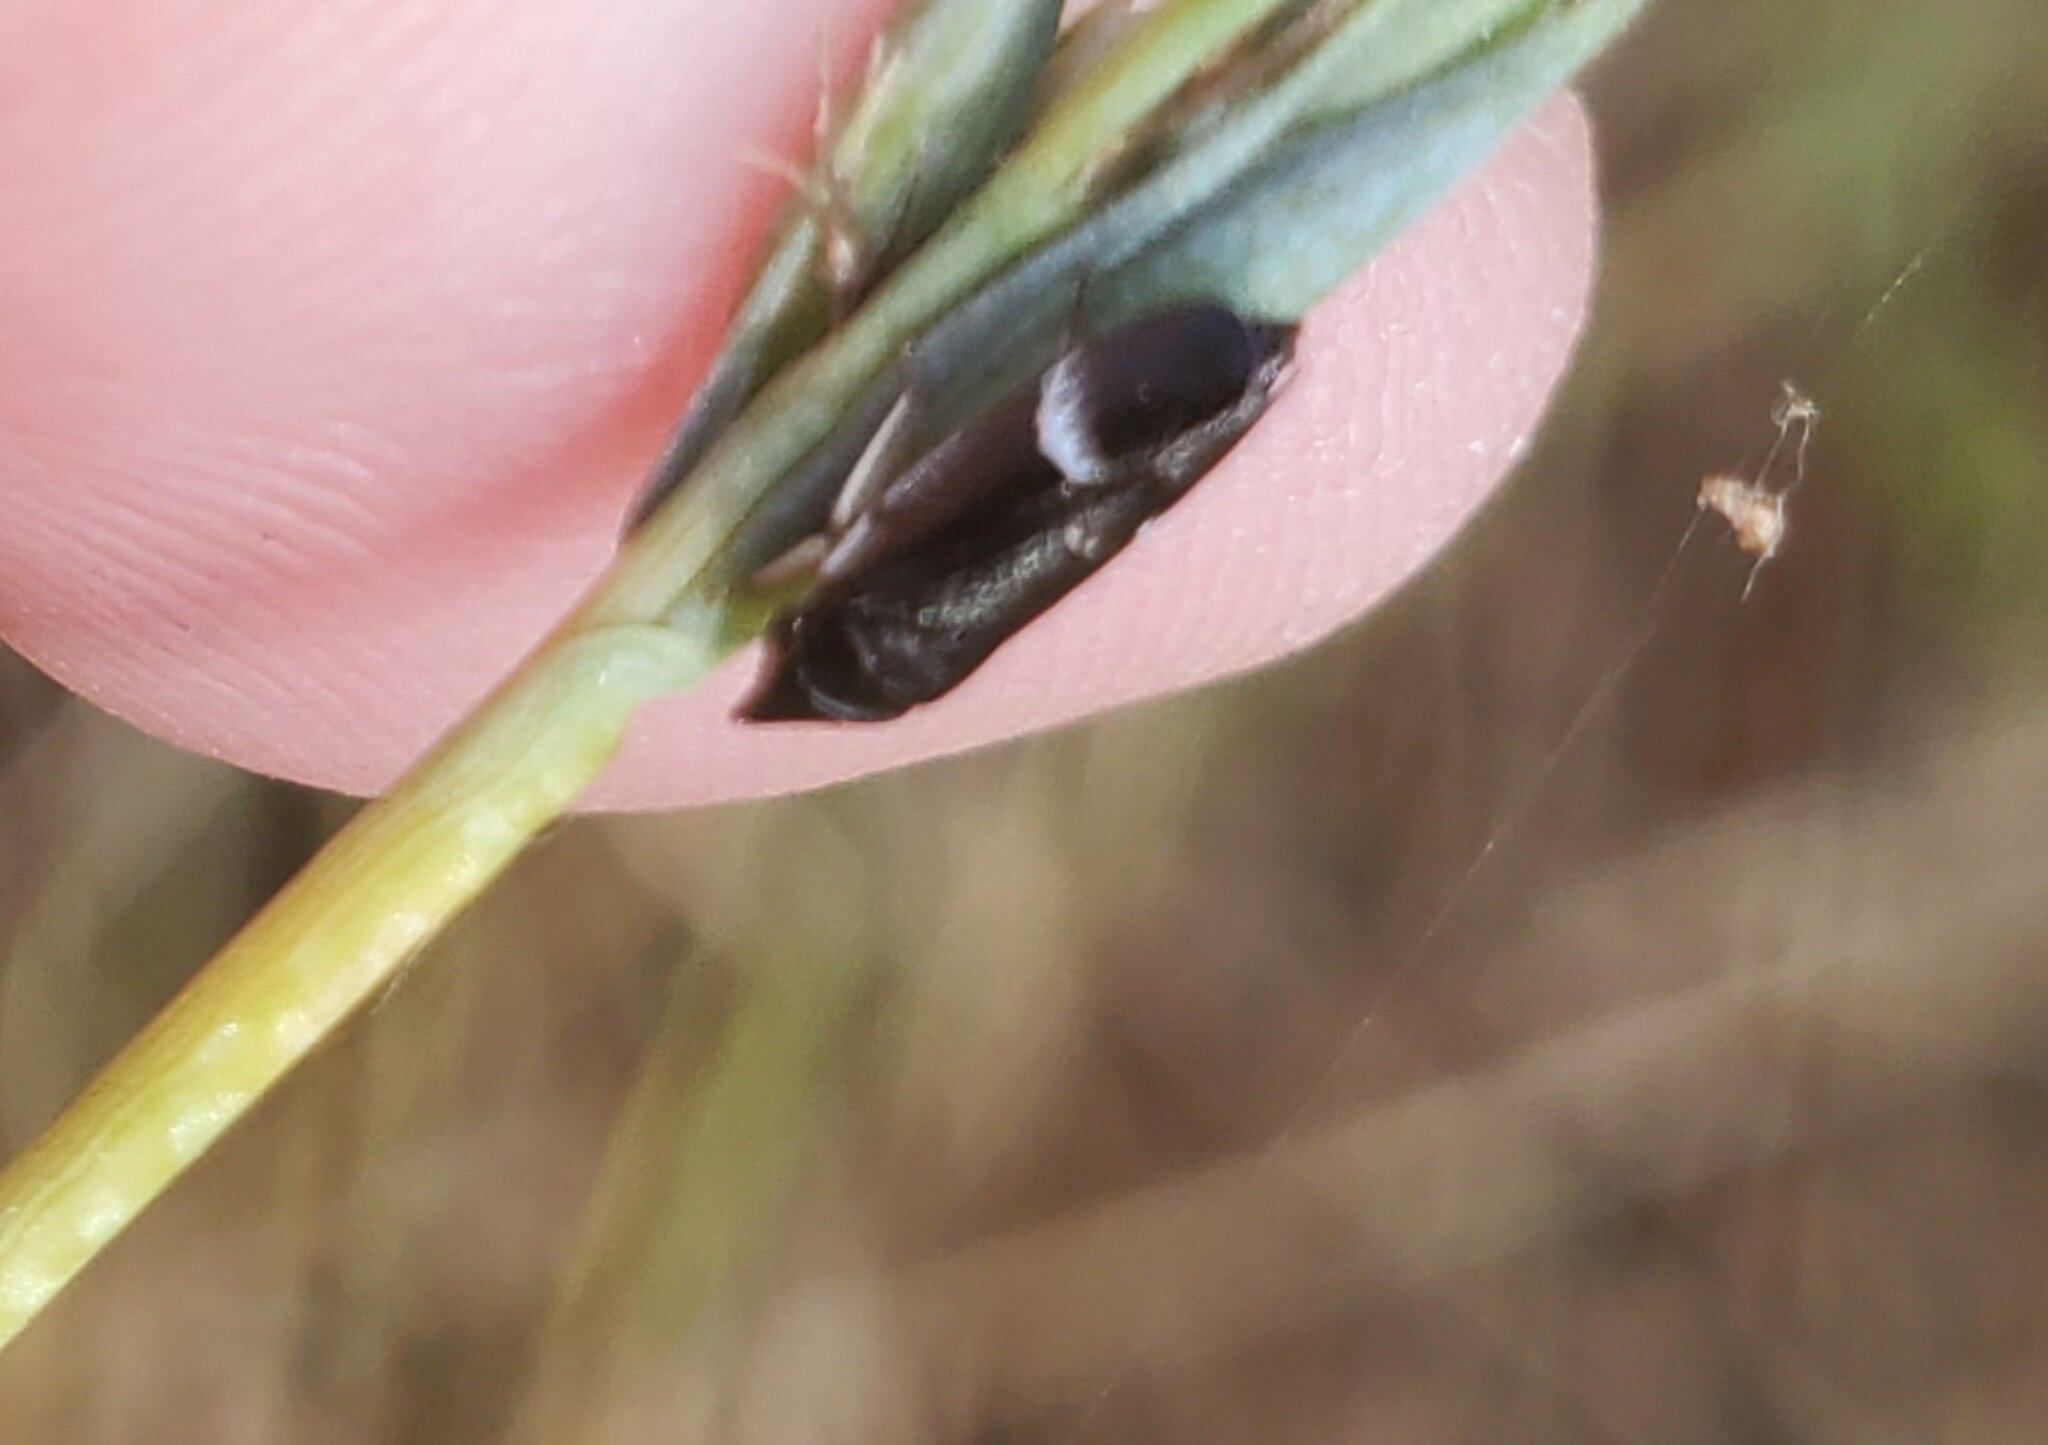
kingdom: Animalia
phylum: Arthropoda
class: Insecta
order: Hemiptera
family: Cicadellidae
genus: Cochlorhinus
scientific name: Cochlorhinus pluto
